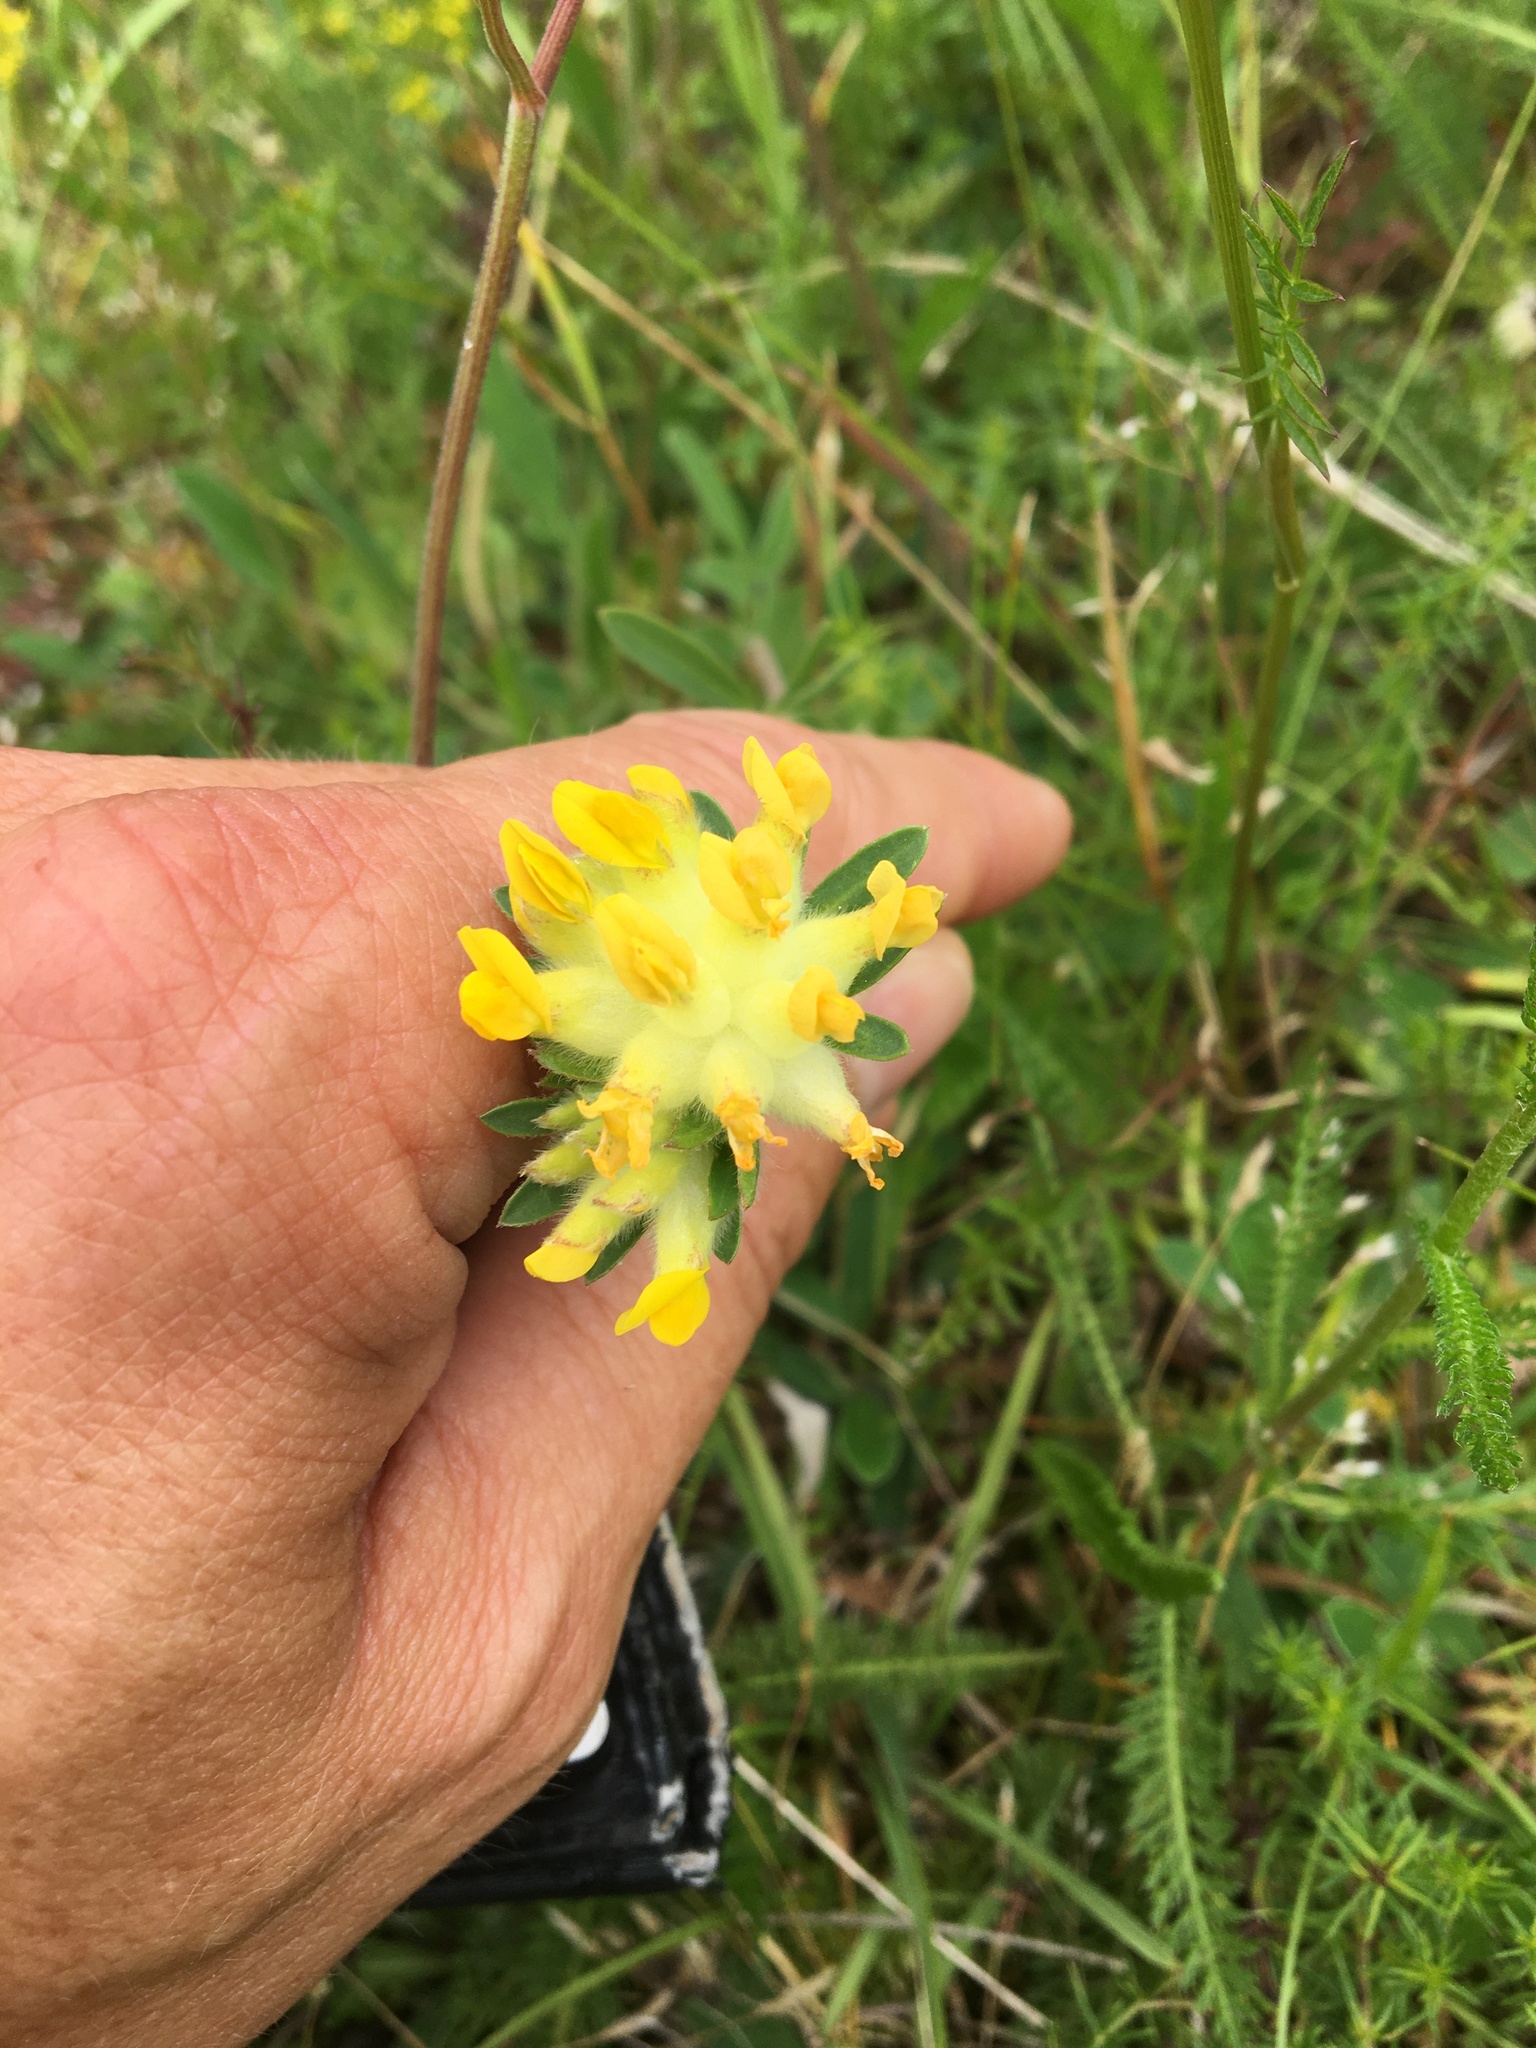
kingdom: Plantae
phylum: Tracheophyta
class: Magnoliopsida
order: Fabales
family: Fabaceae
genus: Anthyllis
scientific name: Anthyllis vulneraria
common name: Kidney vetch
